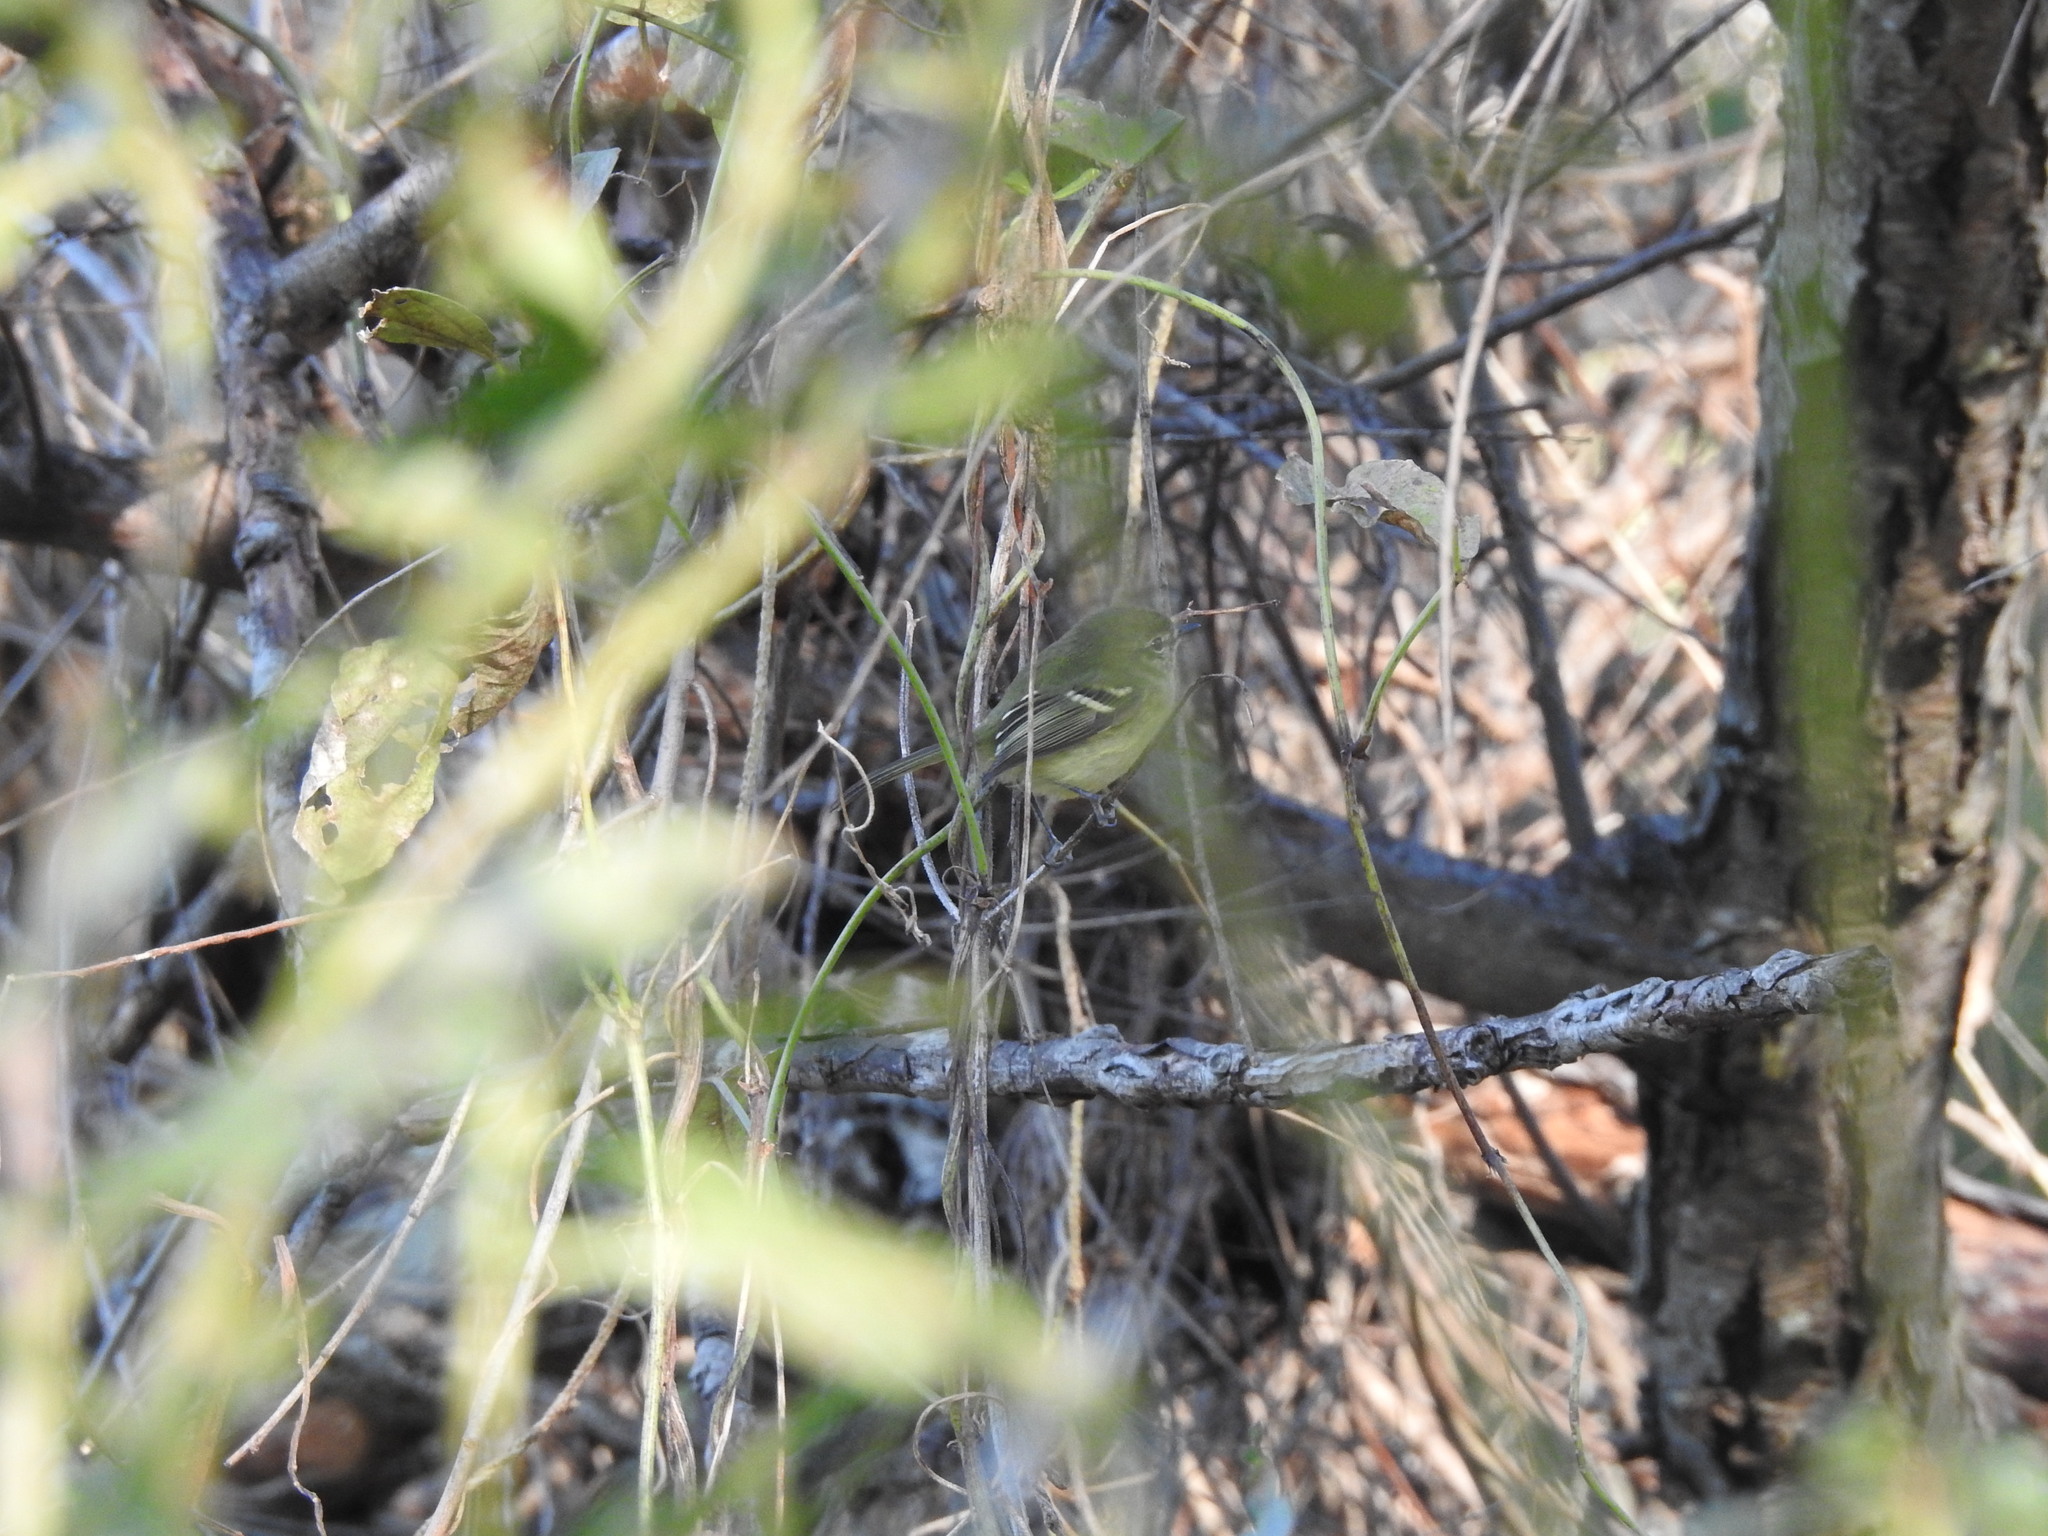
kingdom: Animalia
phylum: Chordata
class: Aves
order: Passeriformes
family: Tyrannidae
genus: Phylloscartes
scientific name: Phylloscartes ventralis
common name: Mottle-cheeked tyrannulet
